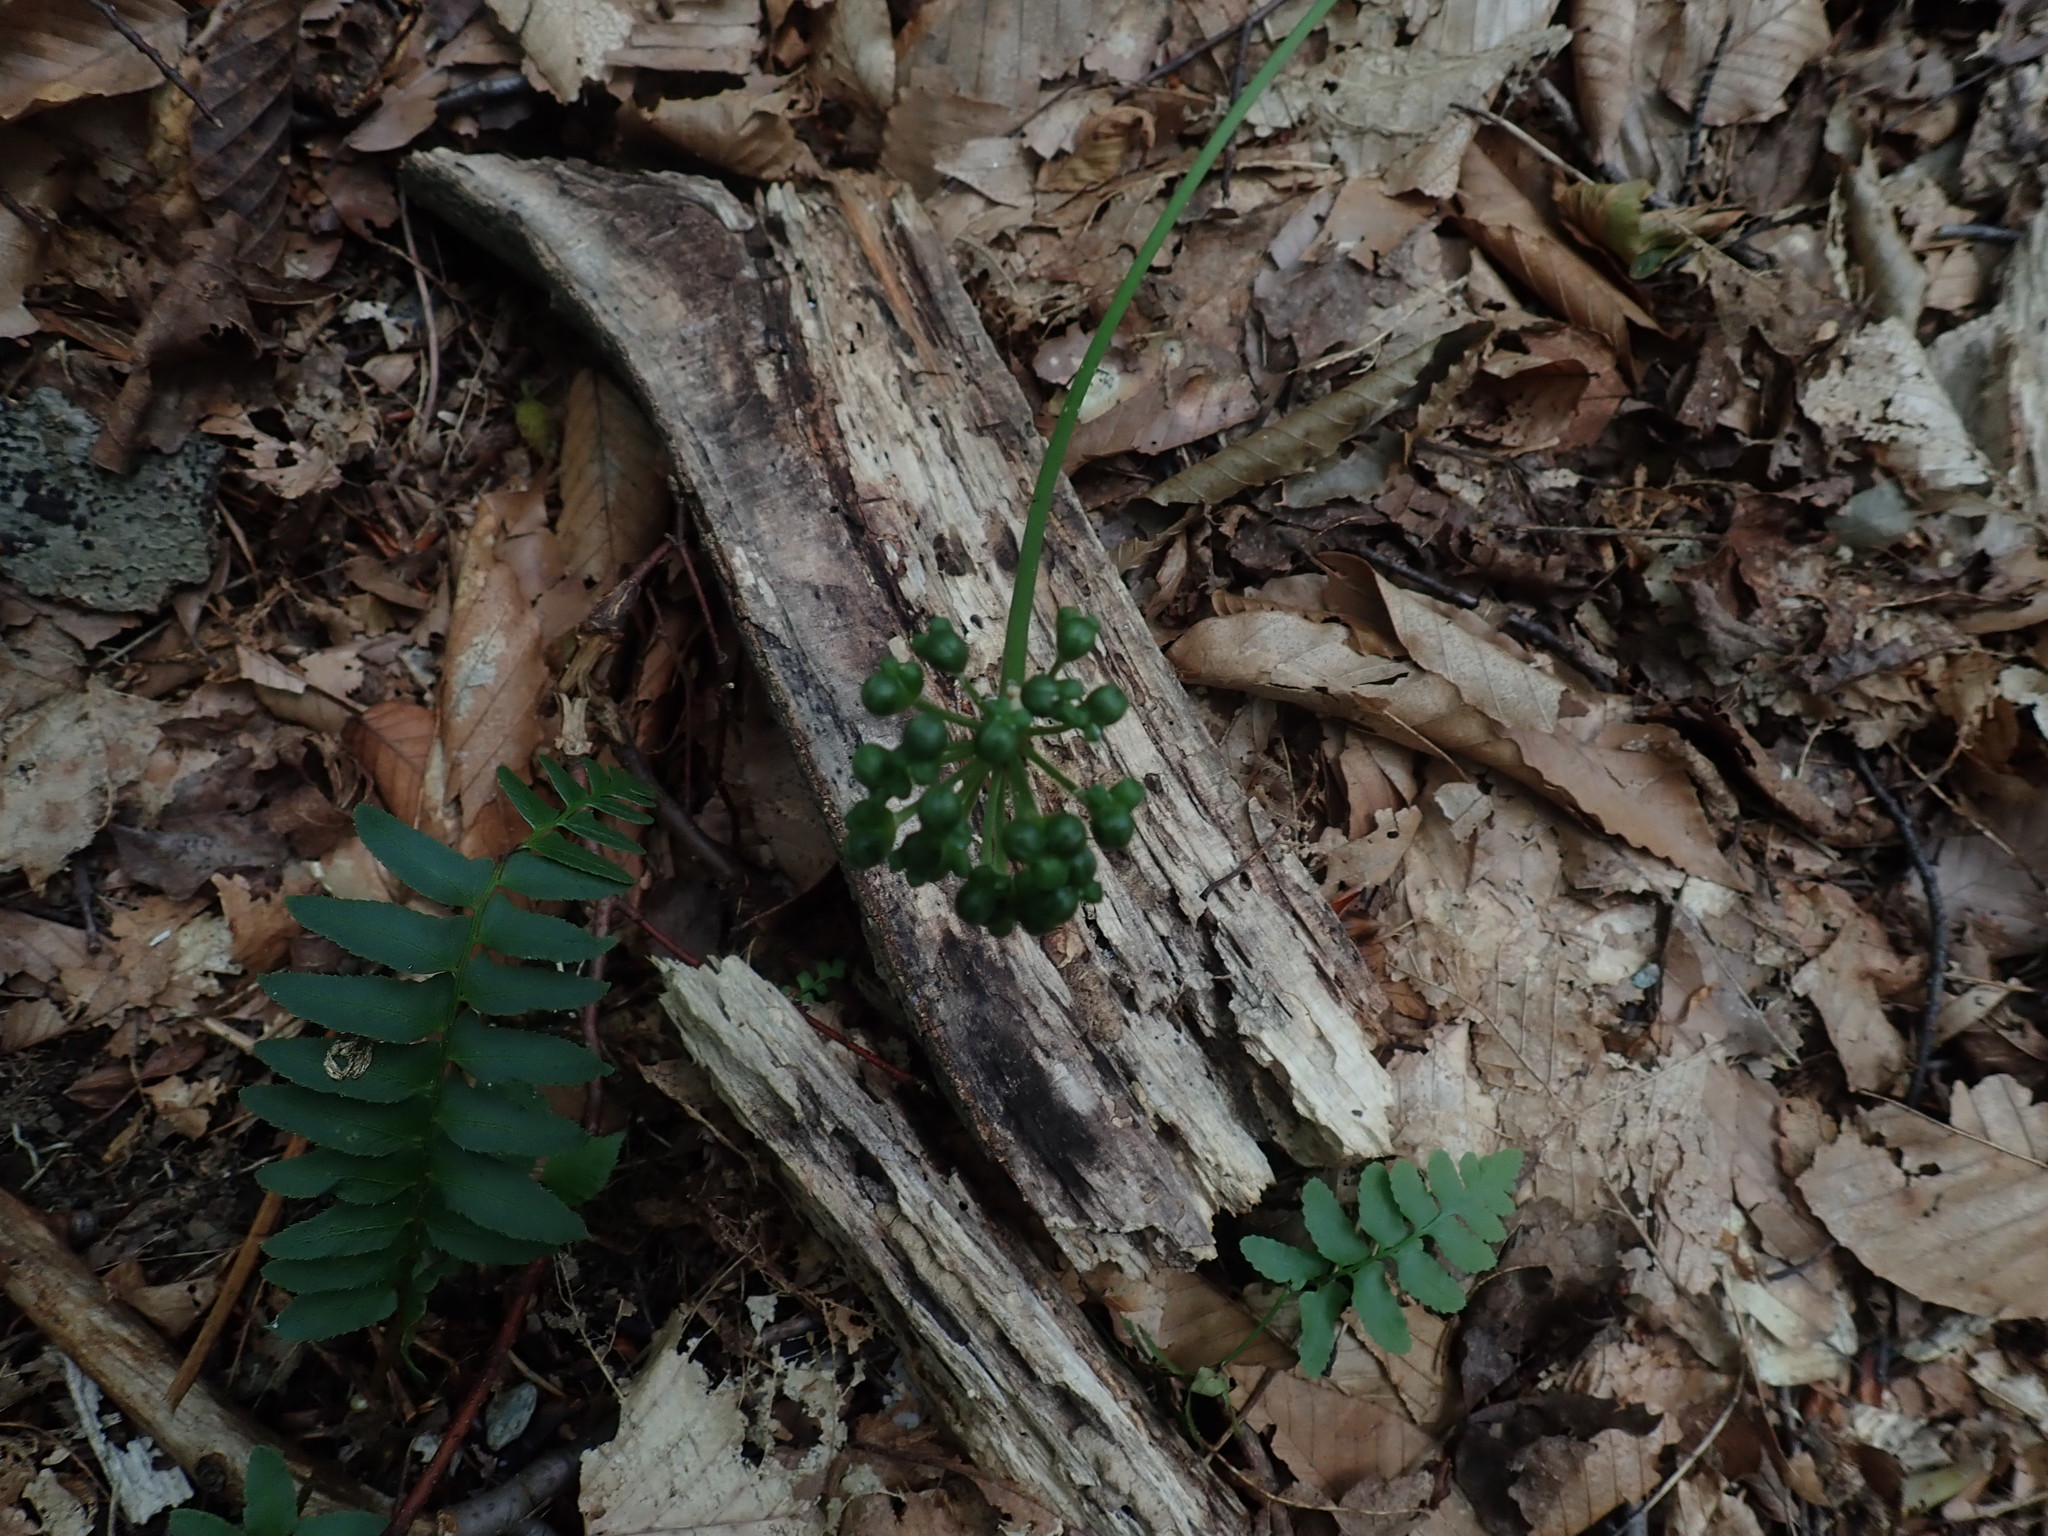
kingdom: Plantae
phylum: Tracheophyta
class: Liliopsida
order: Asparagales
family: Amaryllidaceae
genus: Allium
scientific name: Allium tricoccum
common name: Ramp
